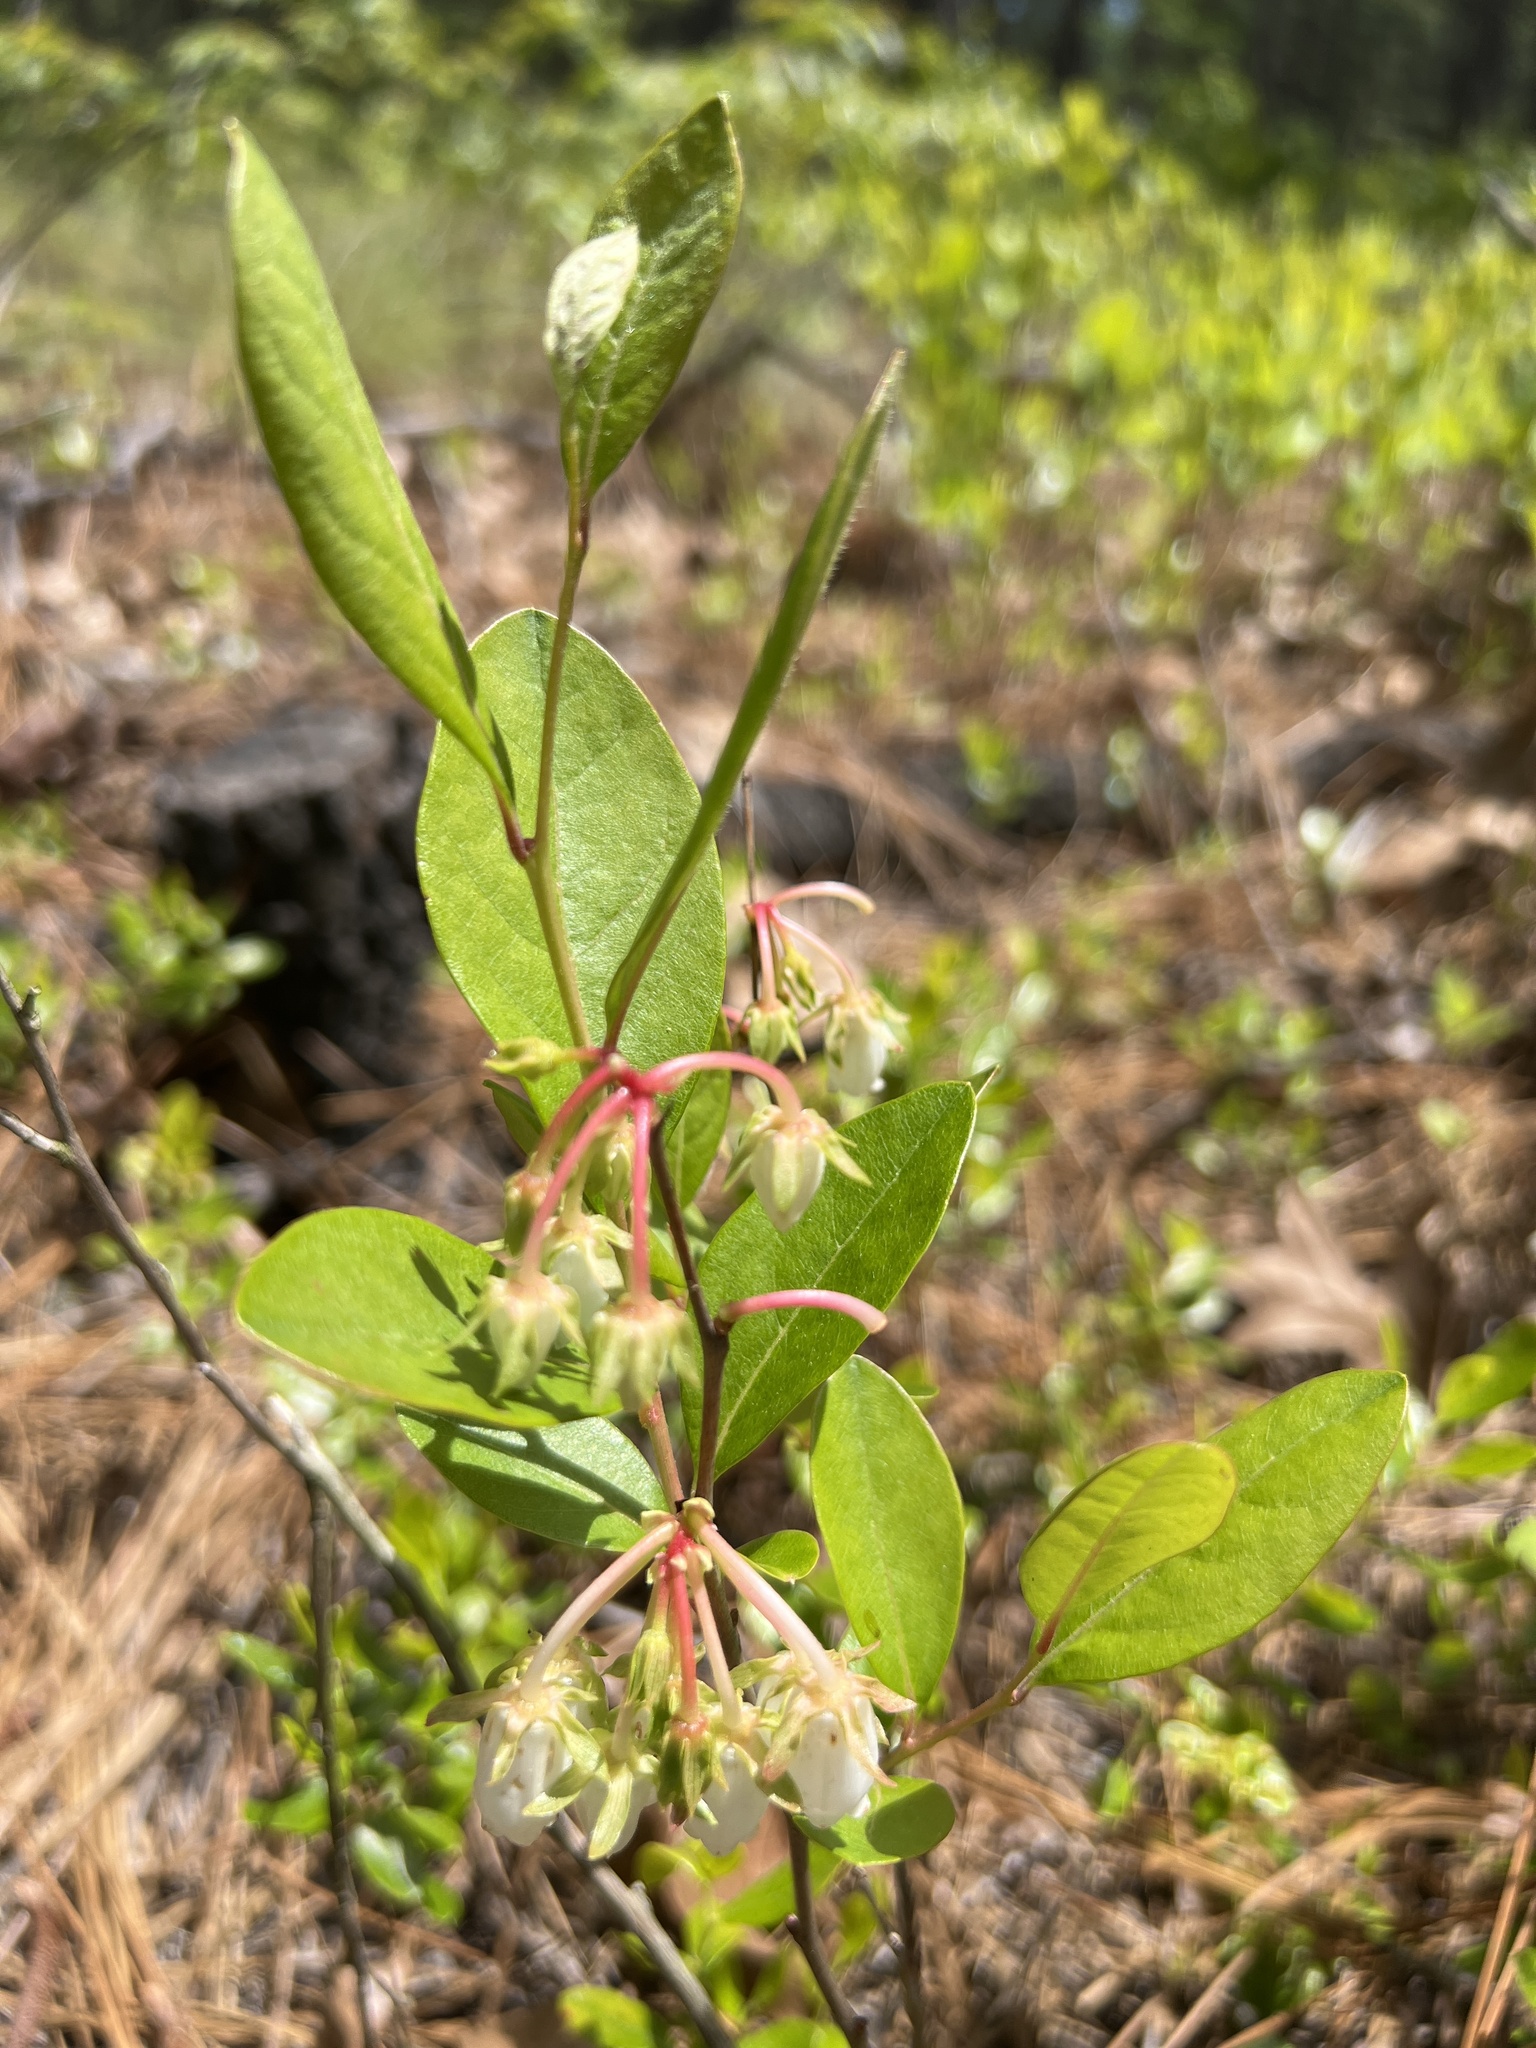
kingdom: Plantae
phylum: Tracheophyta
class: Magnoliopsida
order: Ericales
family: Ericaceae
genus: Lyonia
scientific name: Lyonia mariana
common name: Staggerbush
